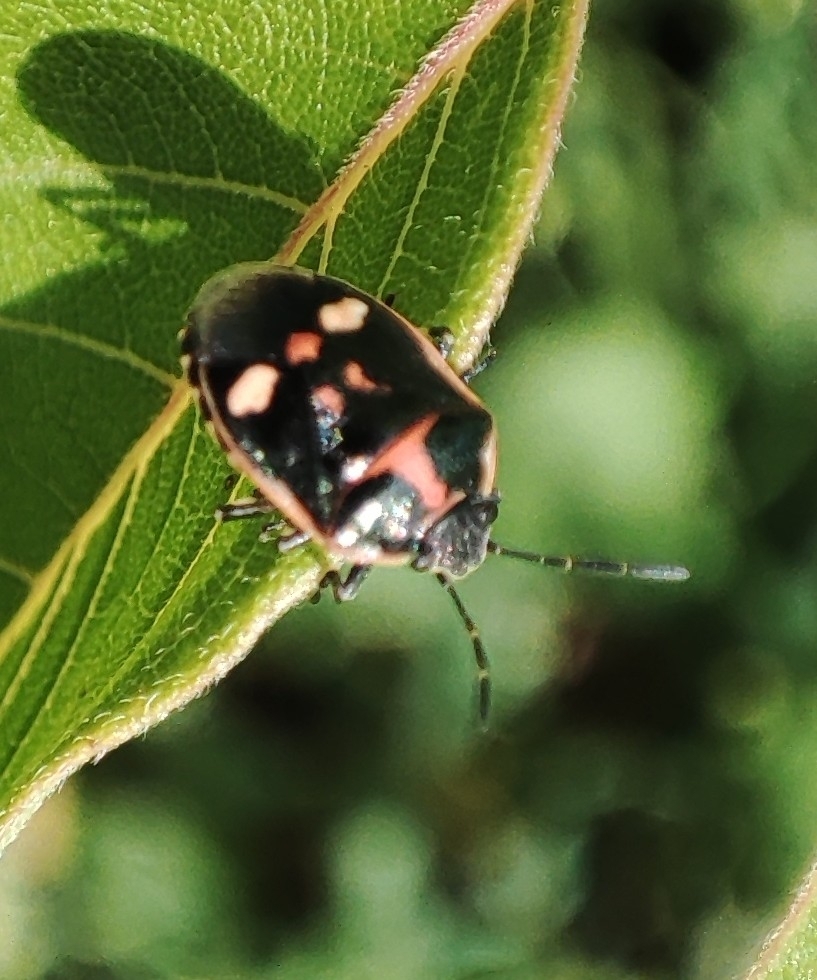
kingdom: Animalia
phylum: Arthropoda
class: Insecta
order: Hemiptera
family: Pentatomidae
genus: Eurydema
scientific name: Eurydema oleracea
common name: Cabbage bug
